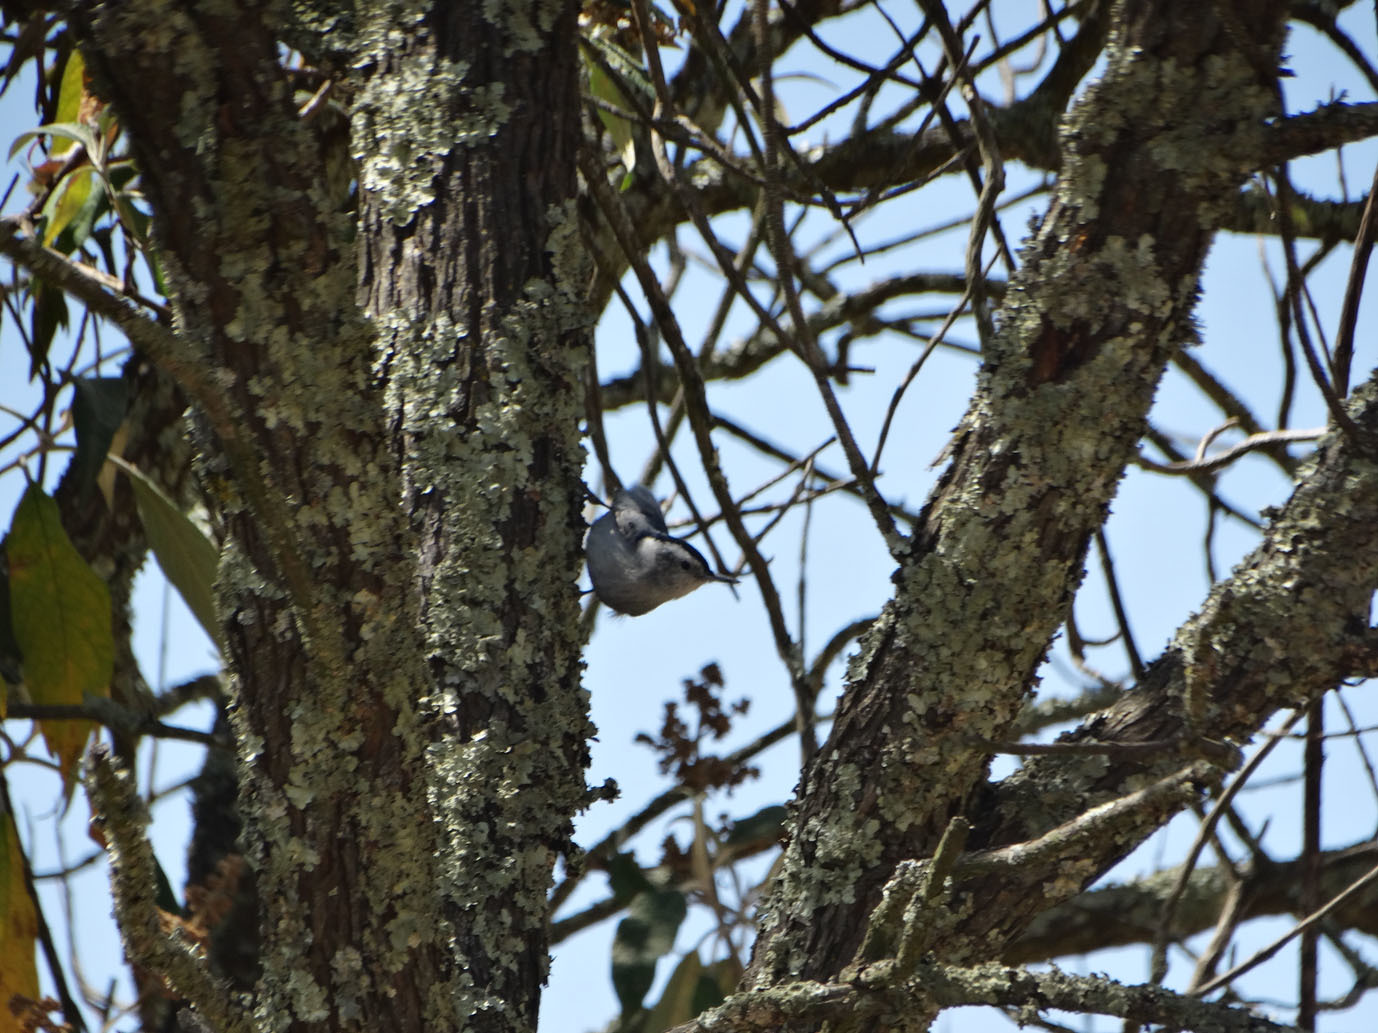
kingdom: Animalia
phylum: Chordata
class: Aves
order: Passeriformes
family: Sittidae
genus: Sitta
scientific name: Sitta carolinensis
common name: White-breasted nuthatch
